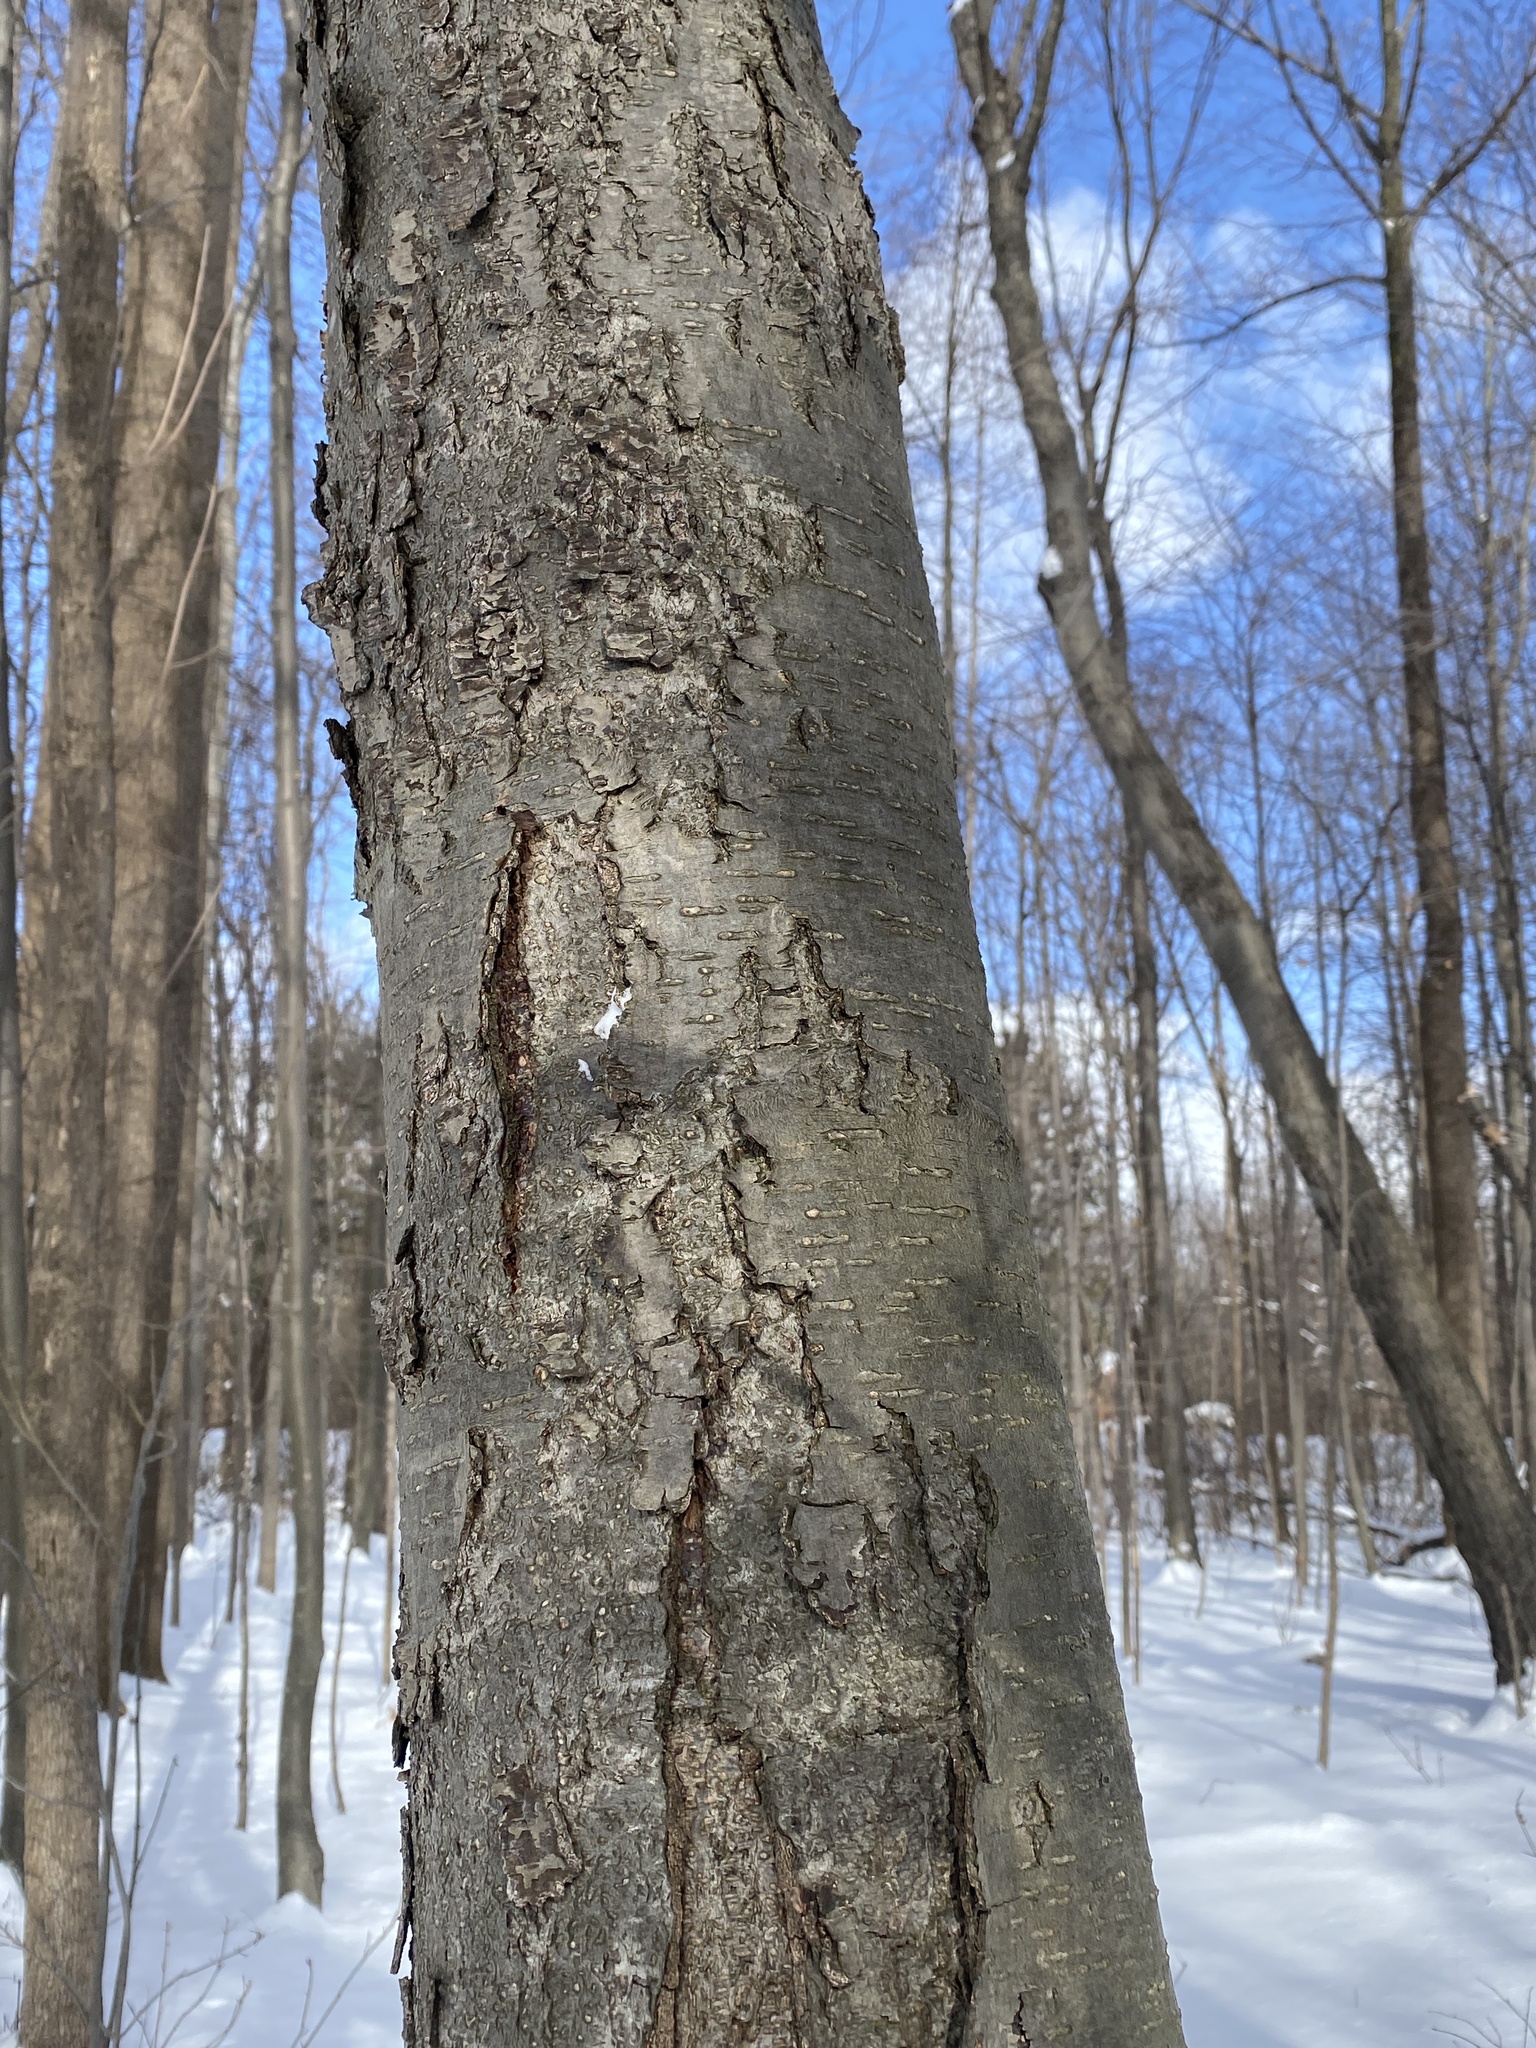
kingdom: Plantae
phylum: Tracheophyta
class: Magnoliopsida
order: Fagales
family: Betulaceae
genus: Betula
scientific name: Betula lenta
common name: Black birch
